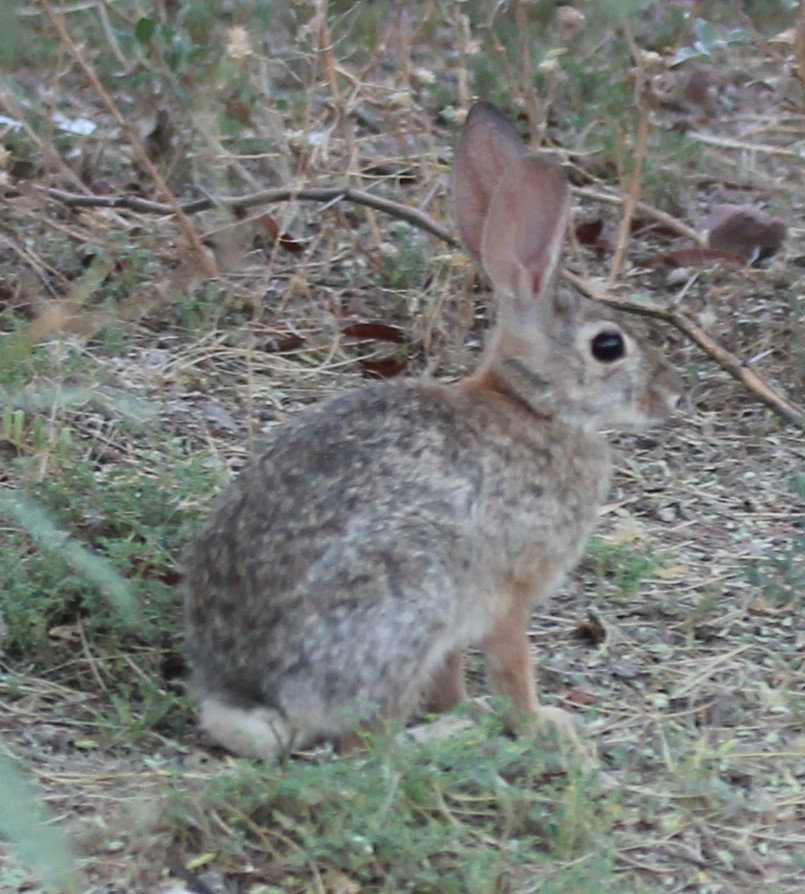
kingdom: Animalia
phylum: Chordata
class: Mammalia
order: Lagomorpha
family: Leporidae
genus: Sylvilagus
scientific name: Sylvilagus audubonii
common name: Desert cottontail
